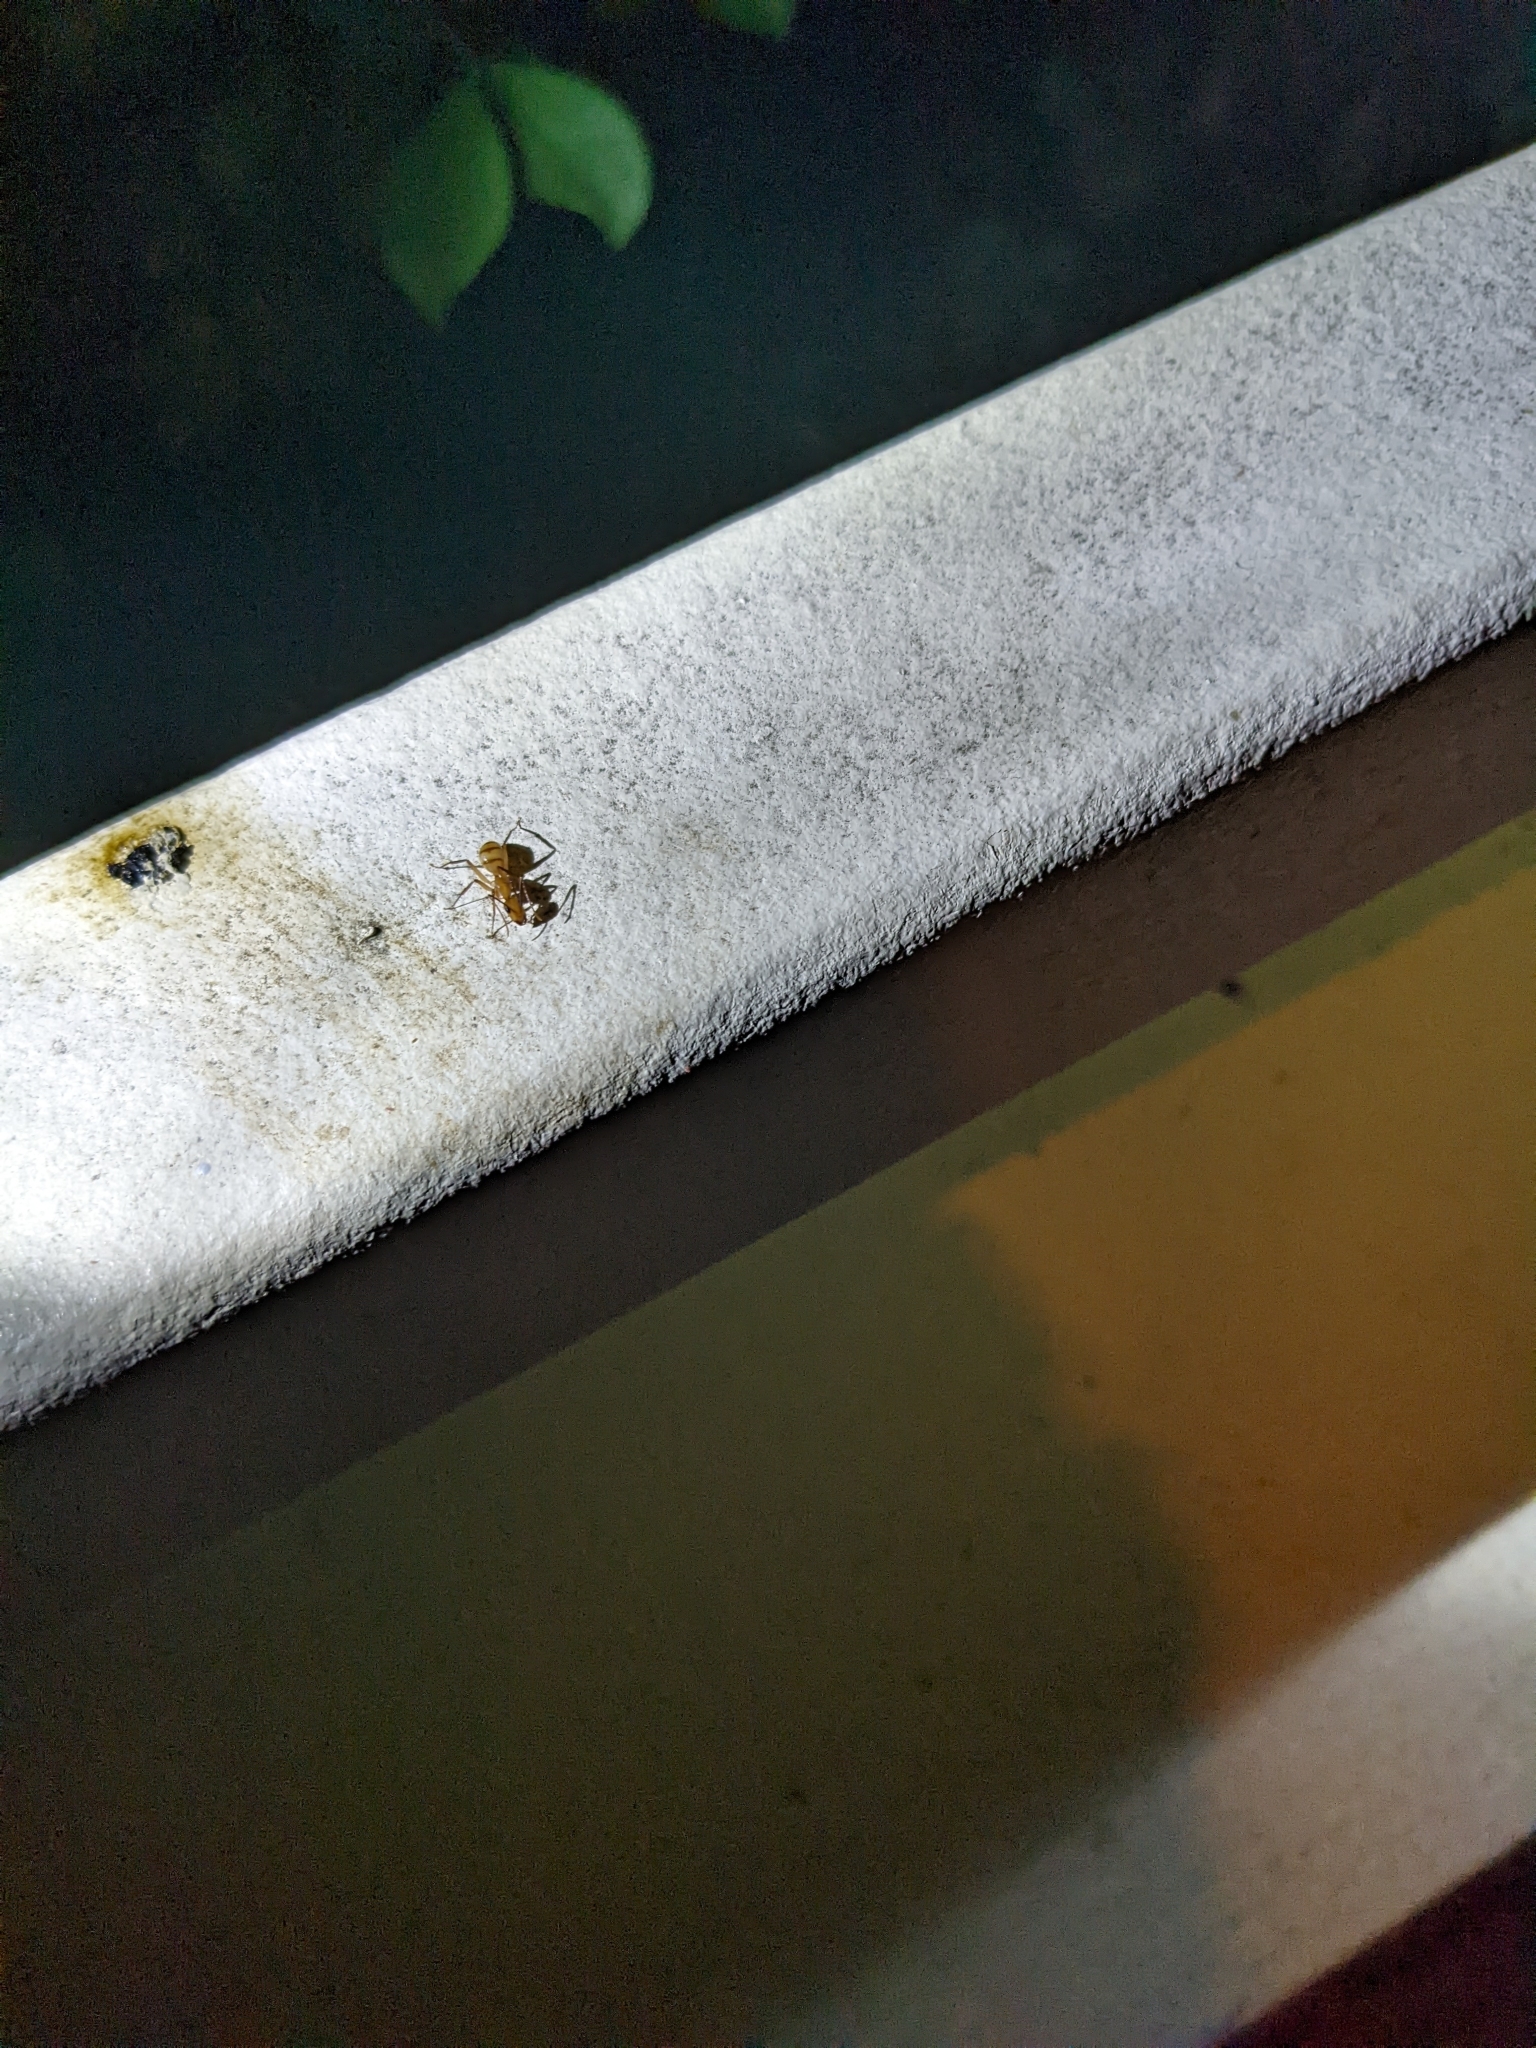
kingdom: Animalia
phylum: Arthropoda
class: Insecta
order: Hymenoptera
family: Formicidae
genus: Camponotus
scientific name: Camponotus variegatus
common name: Hawaiian carpenter ant
